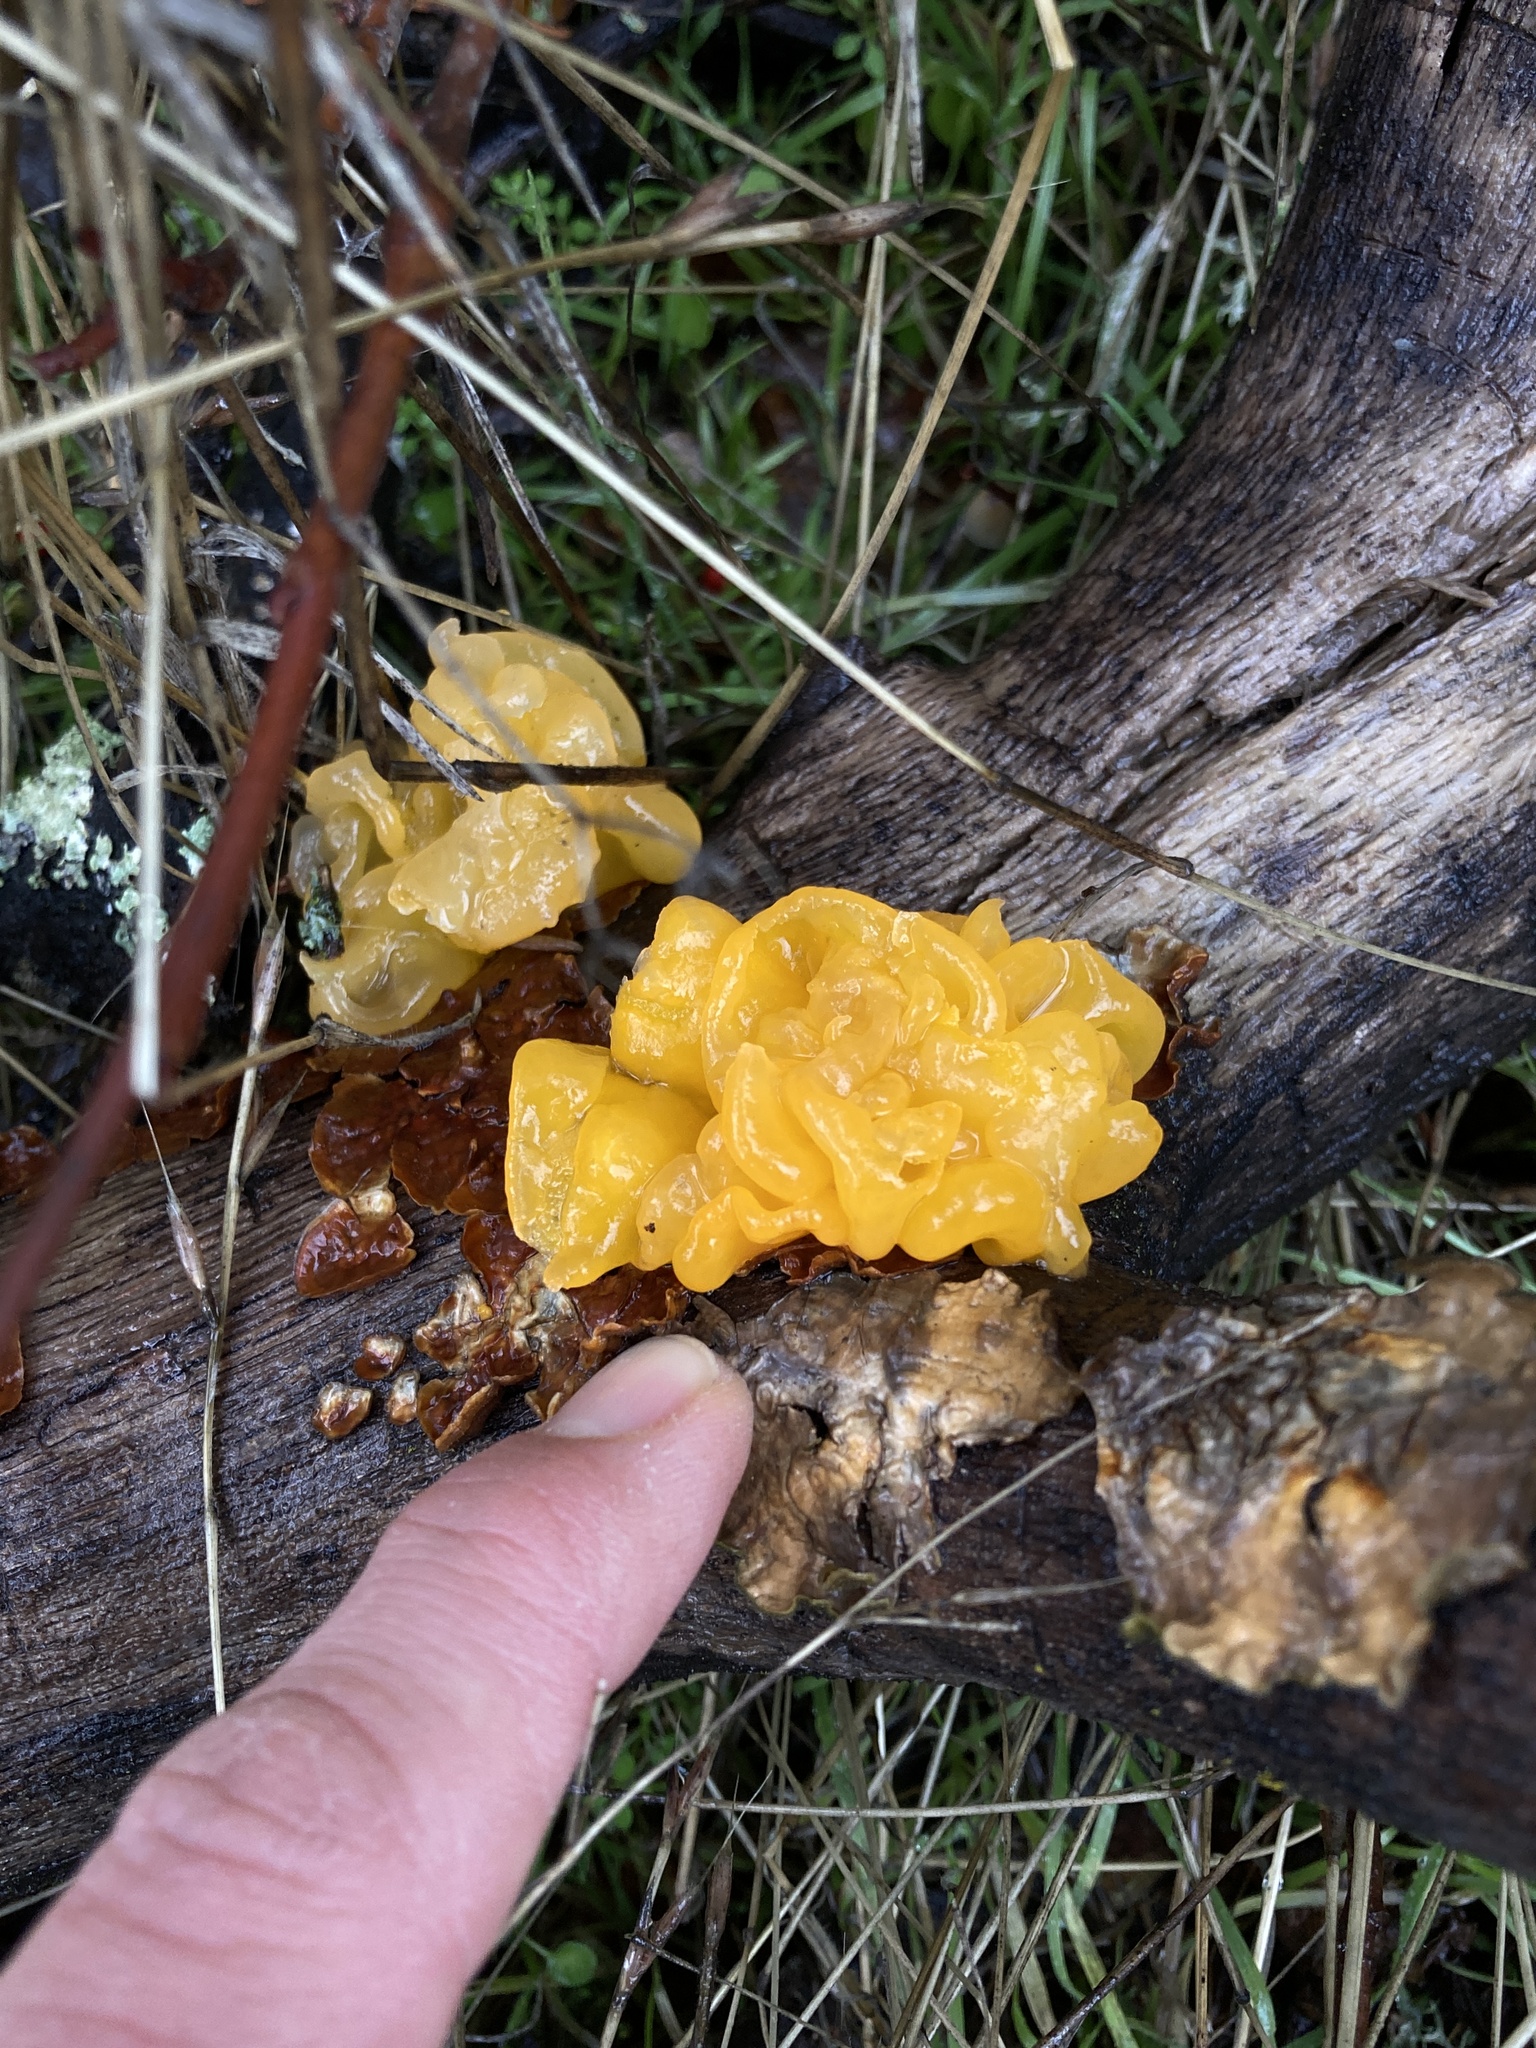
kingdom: Fungi
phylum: Basidiomycota
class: Tremellomycetes
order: Tremellales
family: Naemateliaceae
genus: Naematelia
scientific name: Naematelia aurantia
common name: Golden ear
